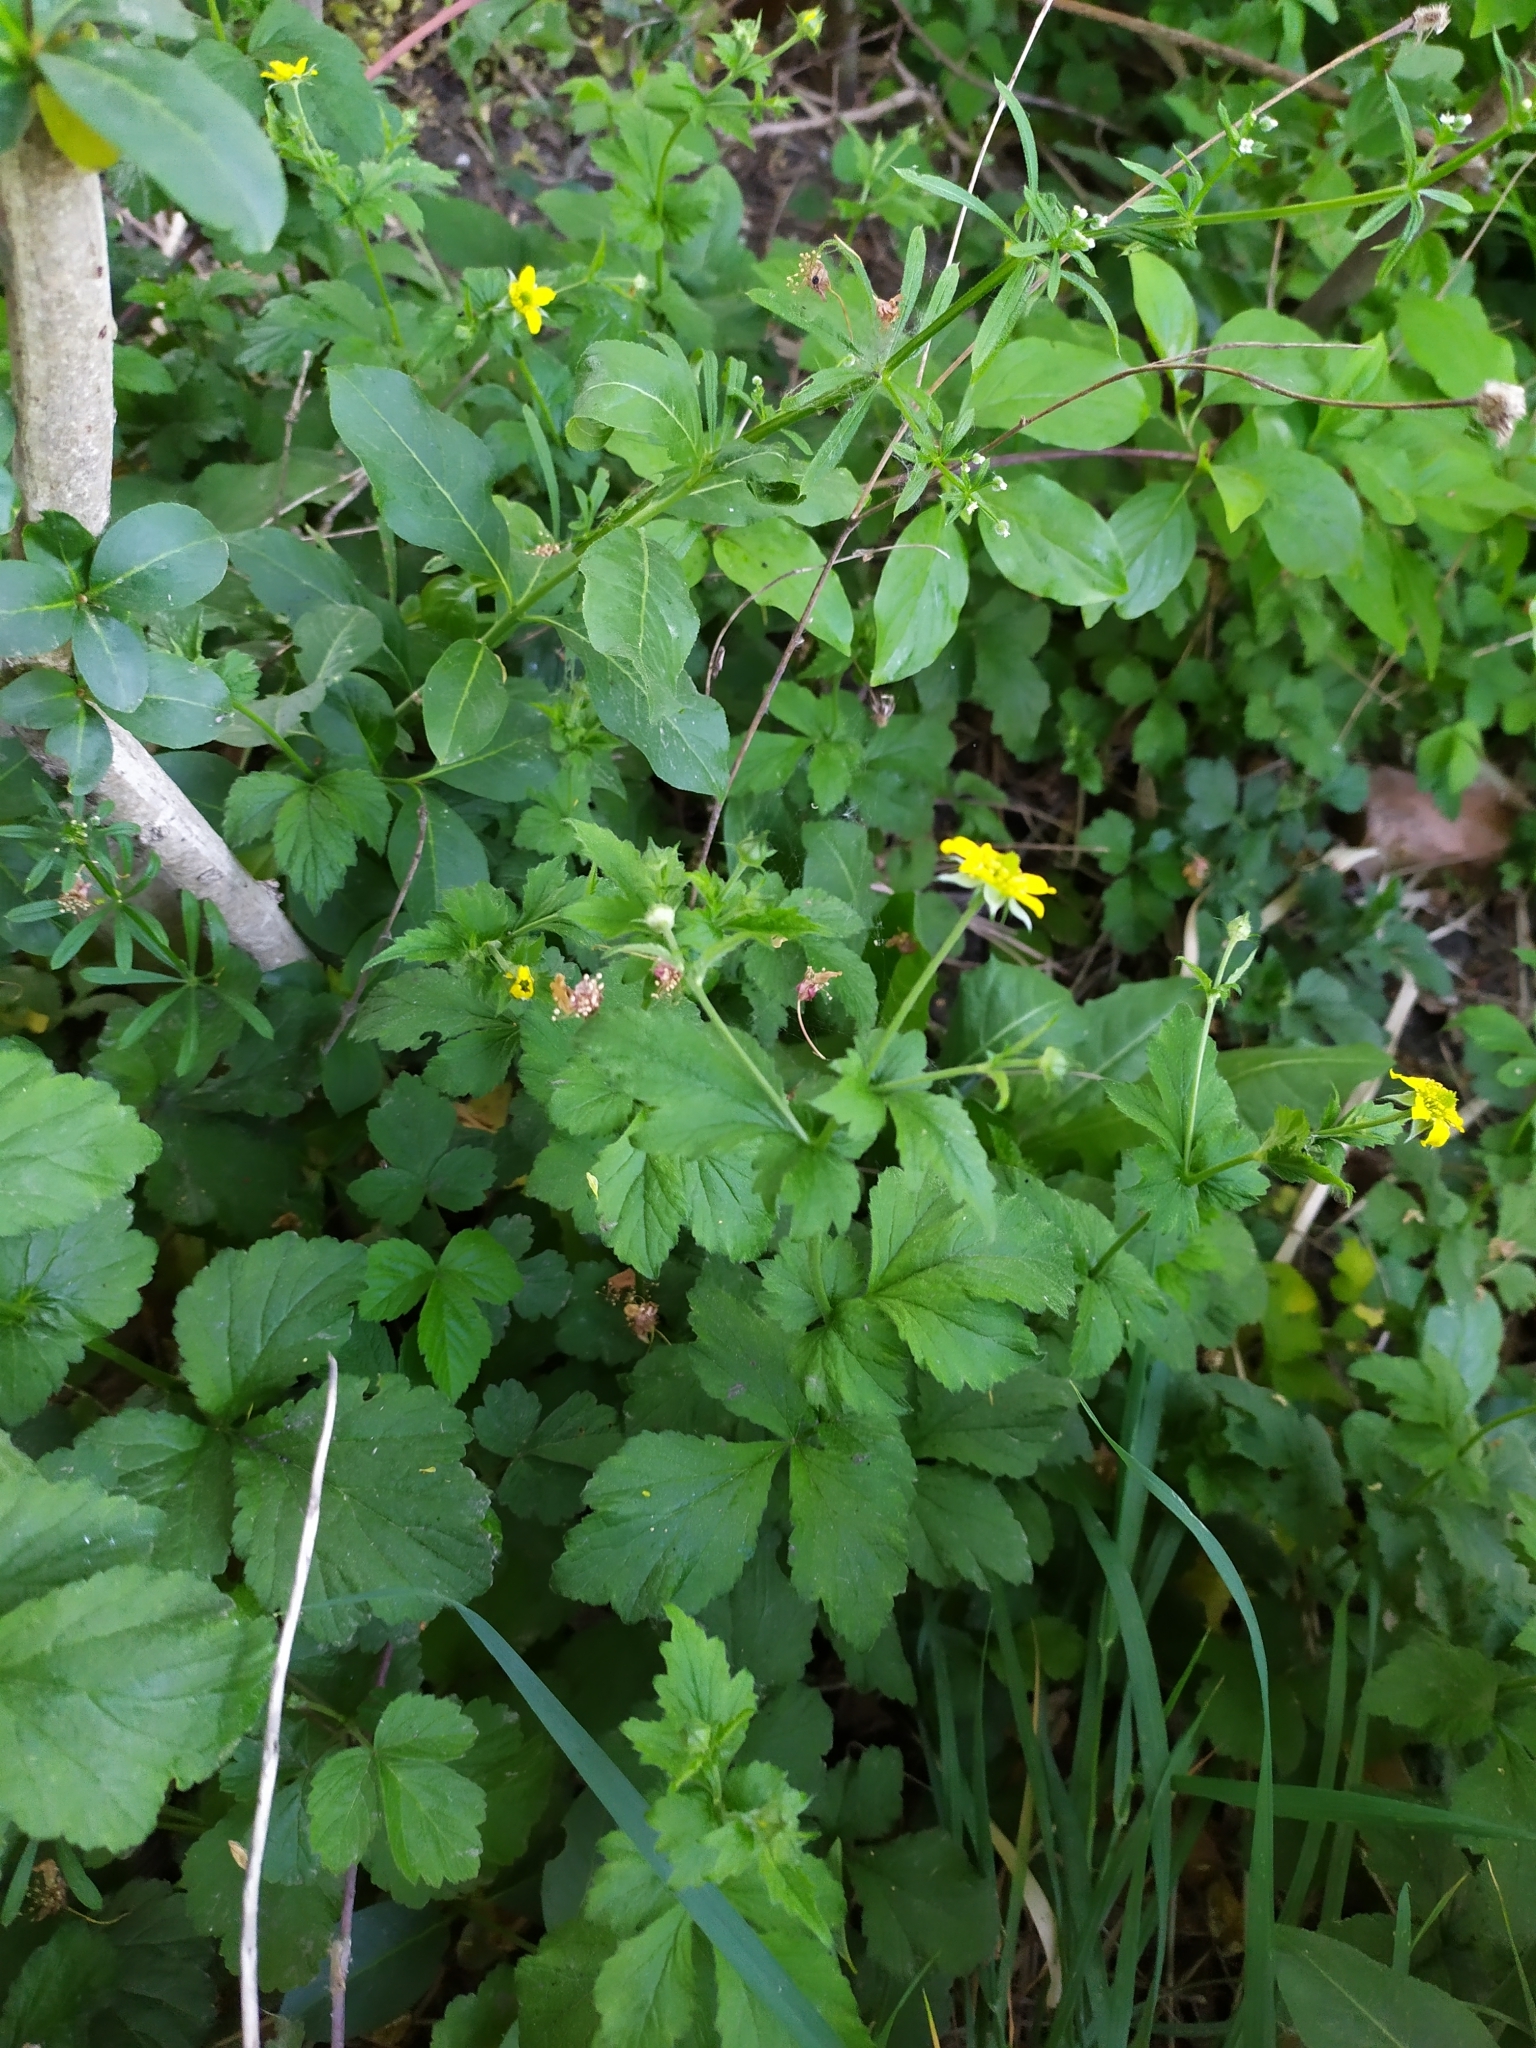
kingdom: Plantae
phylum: Tracheophyta
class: Magnoliopsida
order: Rosales
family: Rosaceae
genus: Geum
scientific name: Geum urbanum
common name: Wood avens
